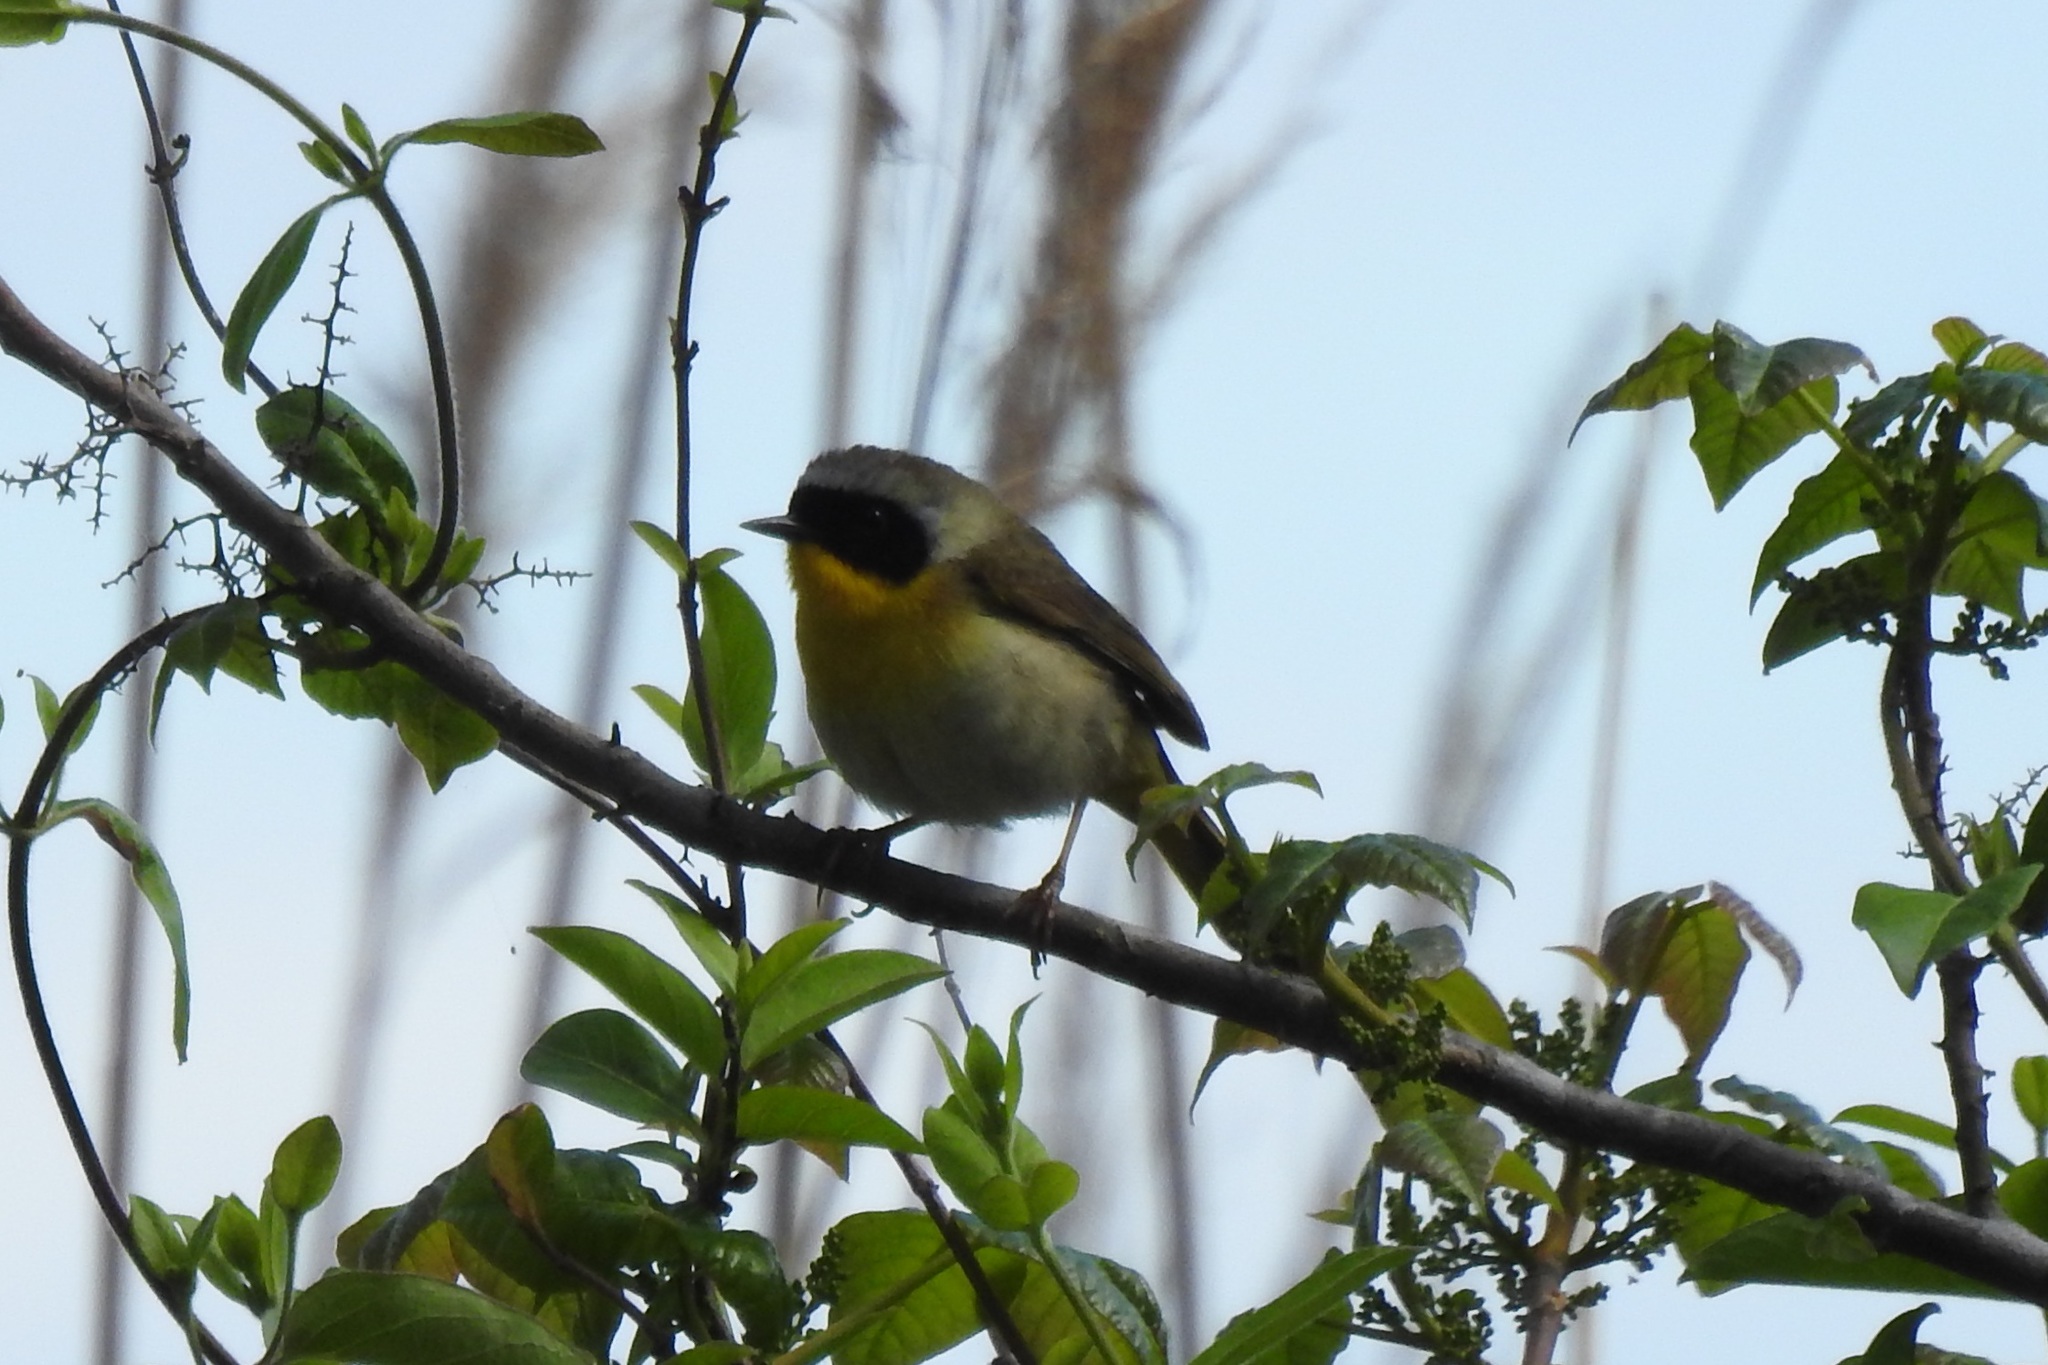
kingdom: Animalia
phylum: Chordata
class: Aves
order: Passeriformes
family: Parulidae
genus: Geothlypis
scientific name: Geothlypis trichas
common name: Common yellowthroat
